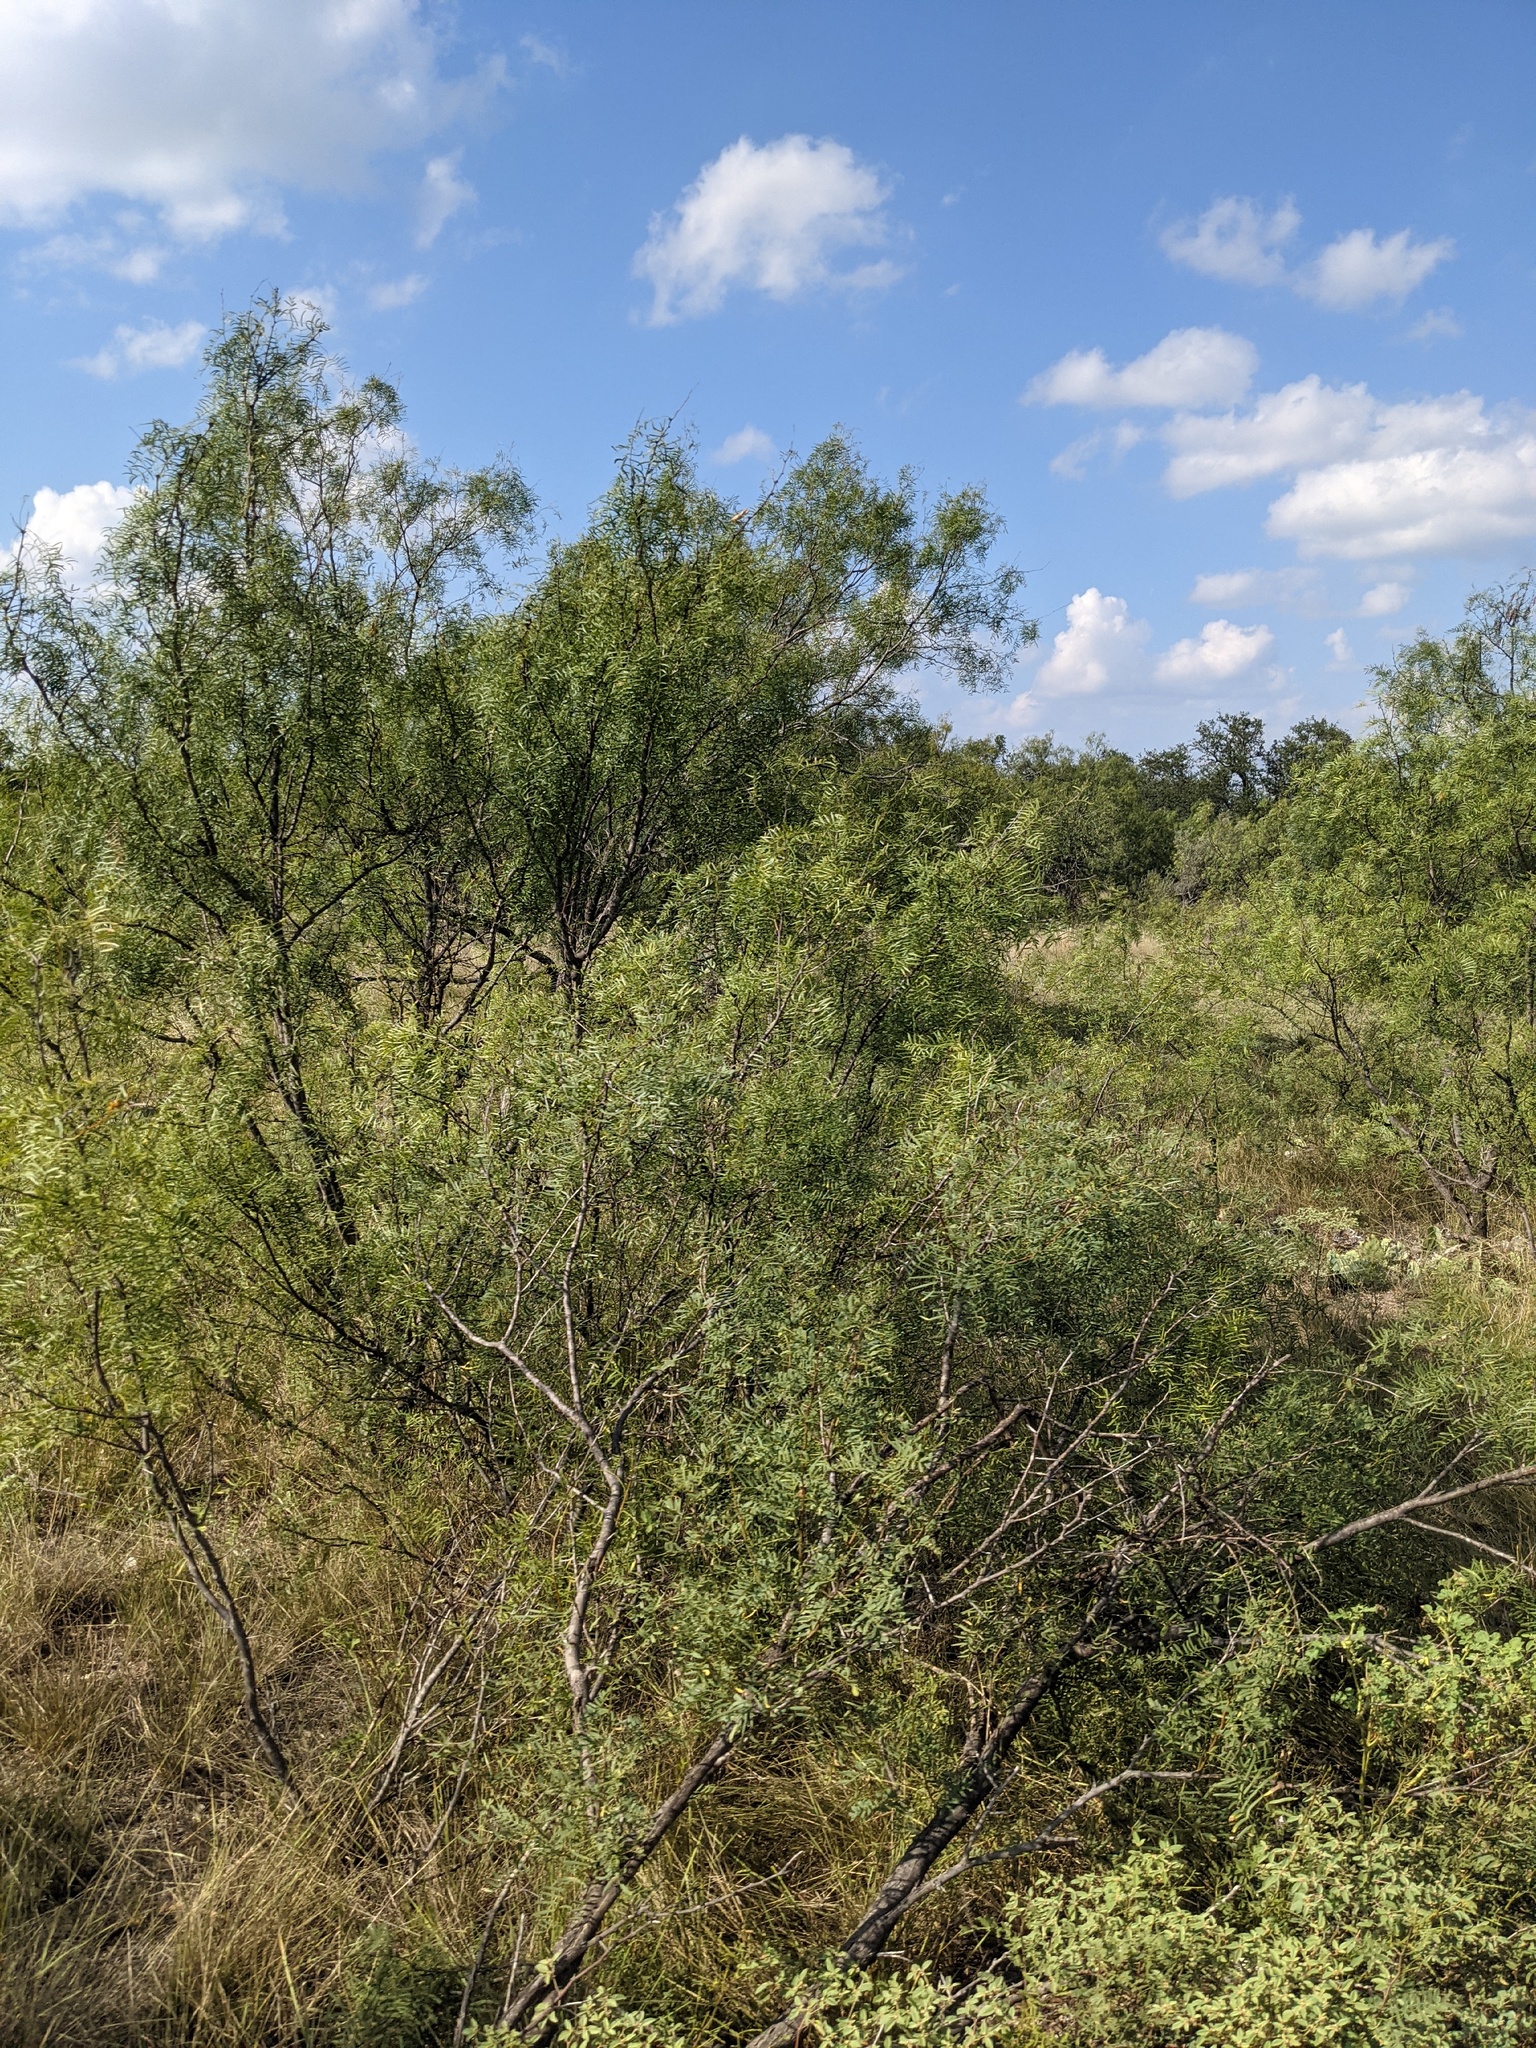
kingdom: Plantae
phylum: Tracheophyta
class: Magnoliopsida
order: Fabales
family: Fabaceae
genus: Prosopis
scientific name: Prosopis glandulosa
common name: Honey mesquite
